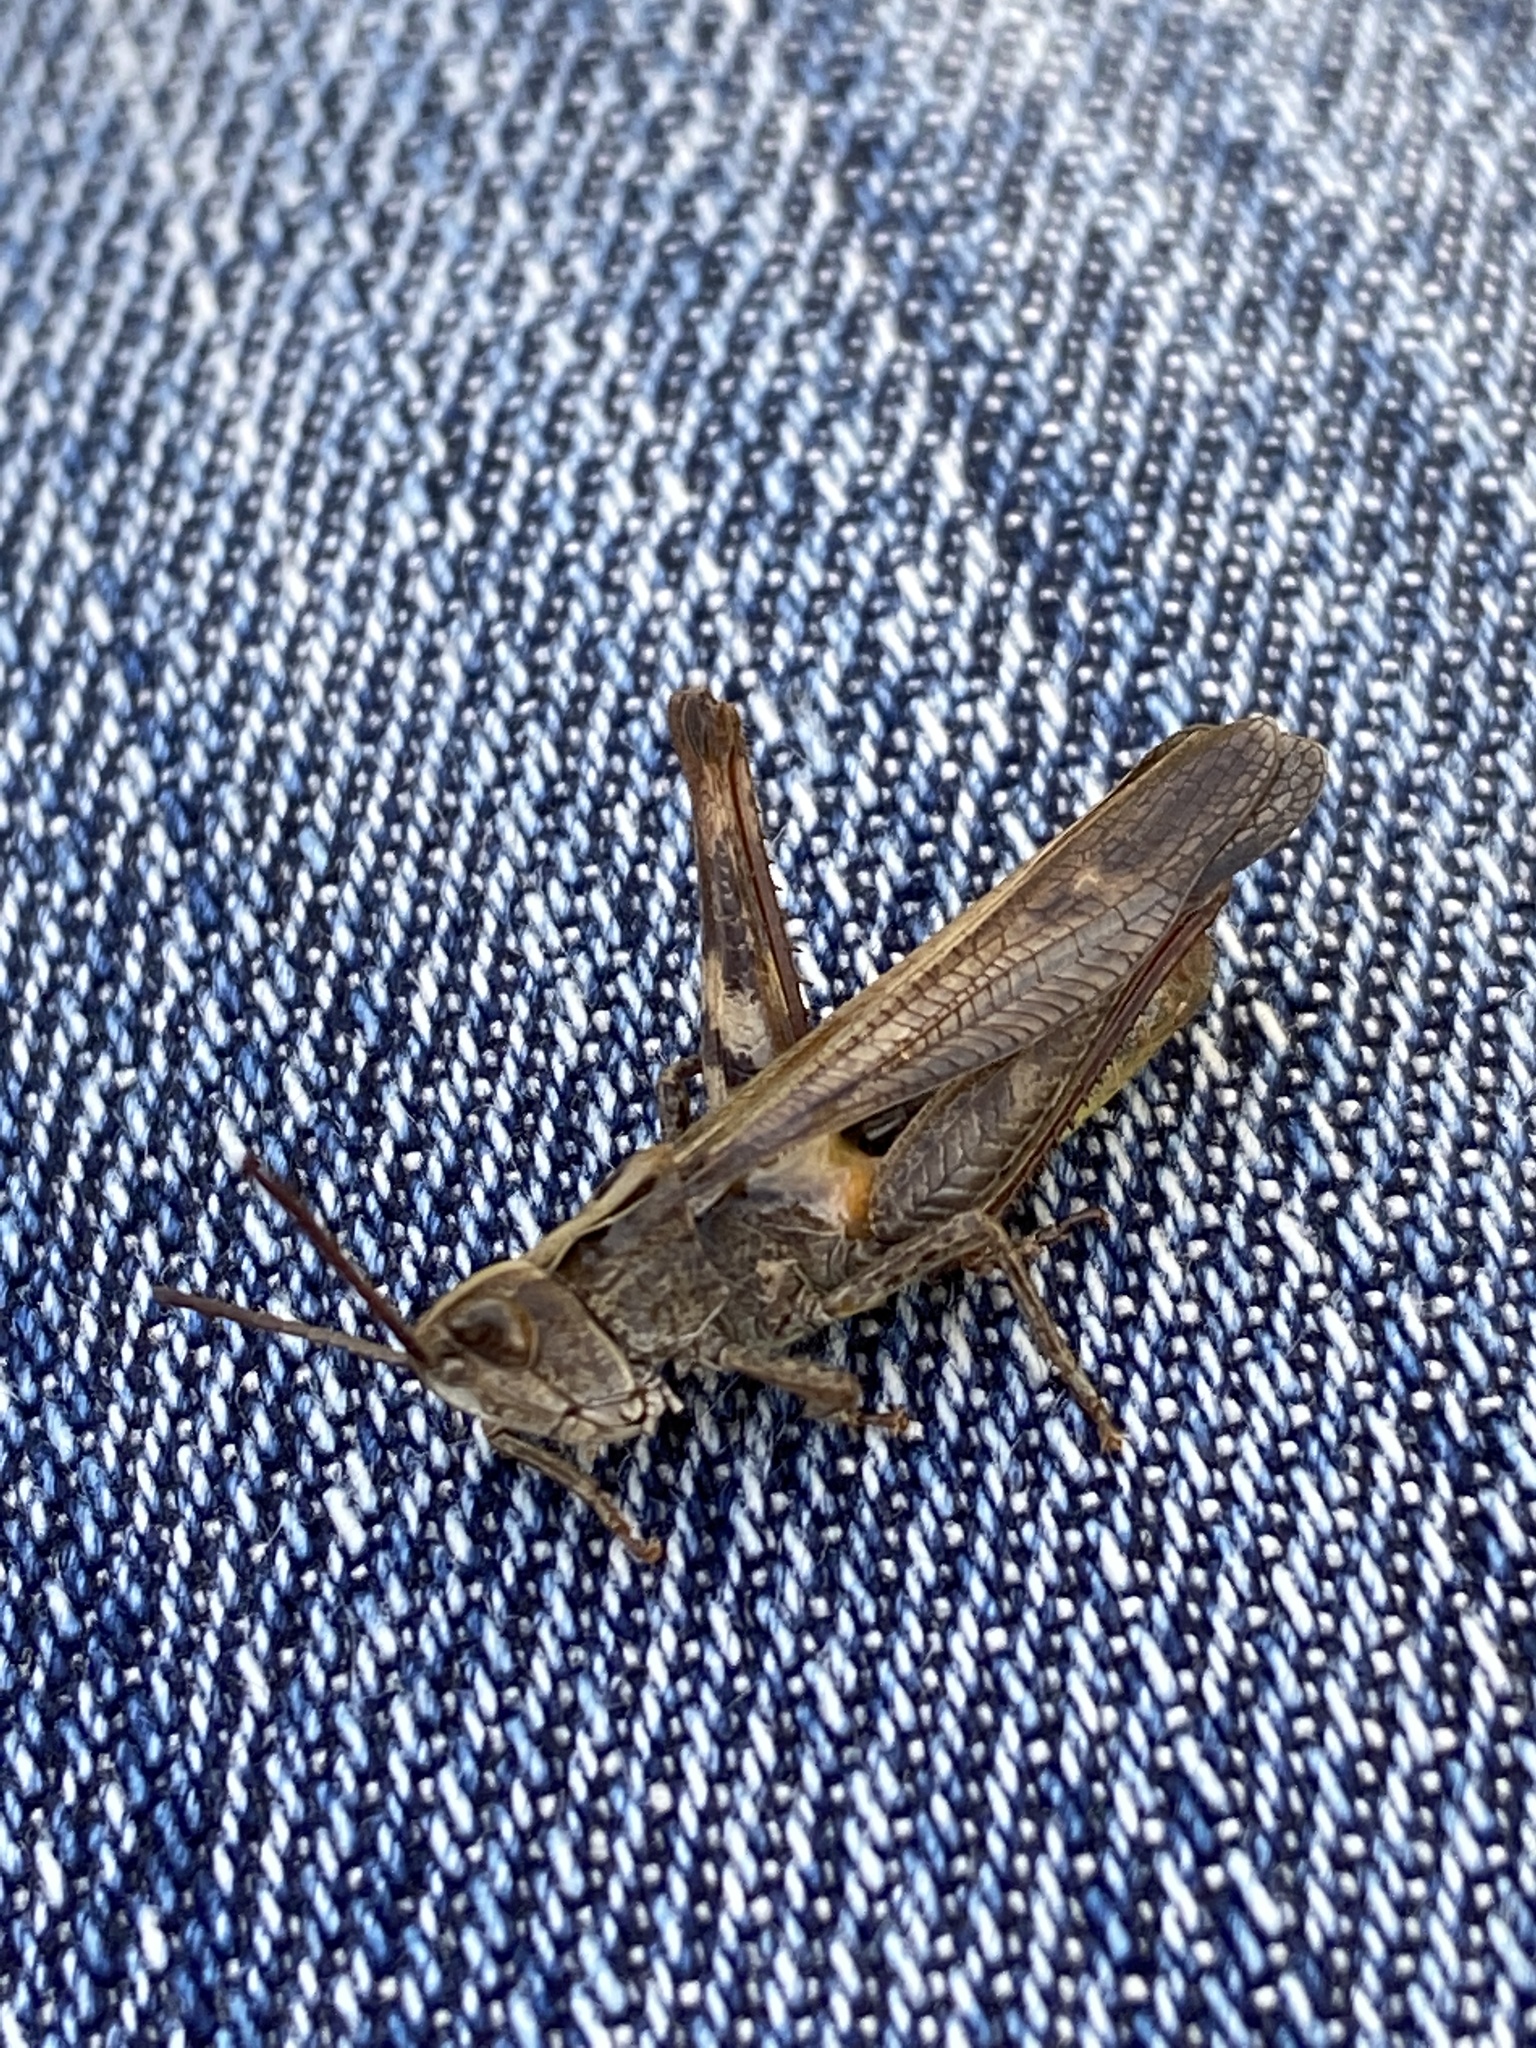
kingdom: Animalia
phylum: Arthropoda
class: Insecta
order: Orthoptera
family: Acrididae
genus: Chorthippus
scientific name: Chorthippus brunneus
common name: Field grasshopper
